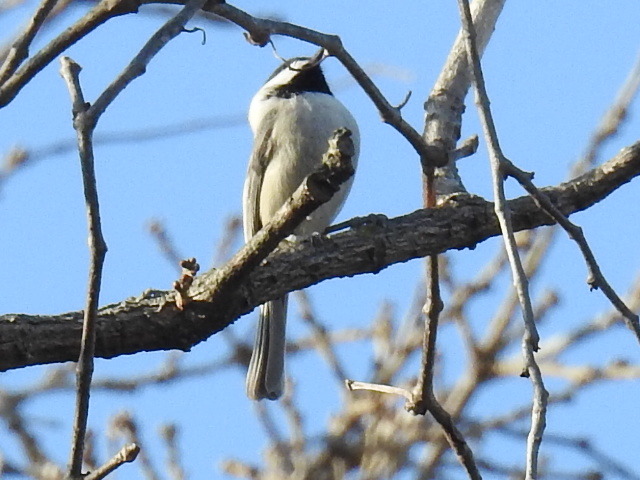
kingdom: Animalia
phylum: Chordata
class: Aves
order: Passeriformes
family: Paridae
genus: Poecile
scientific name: Poecile carolinensis
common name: Carolina chickadee
